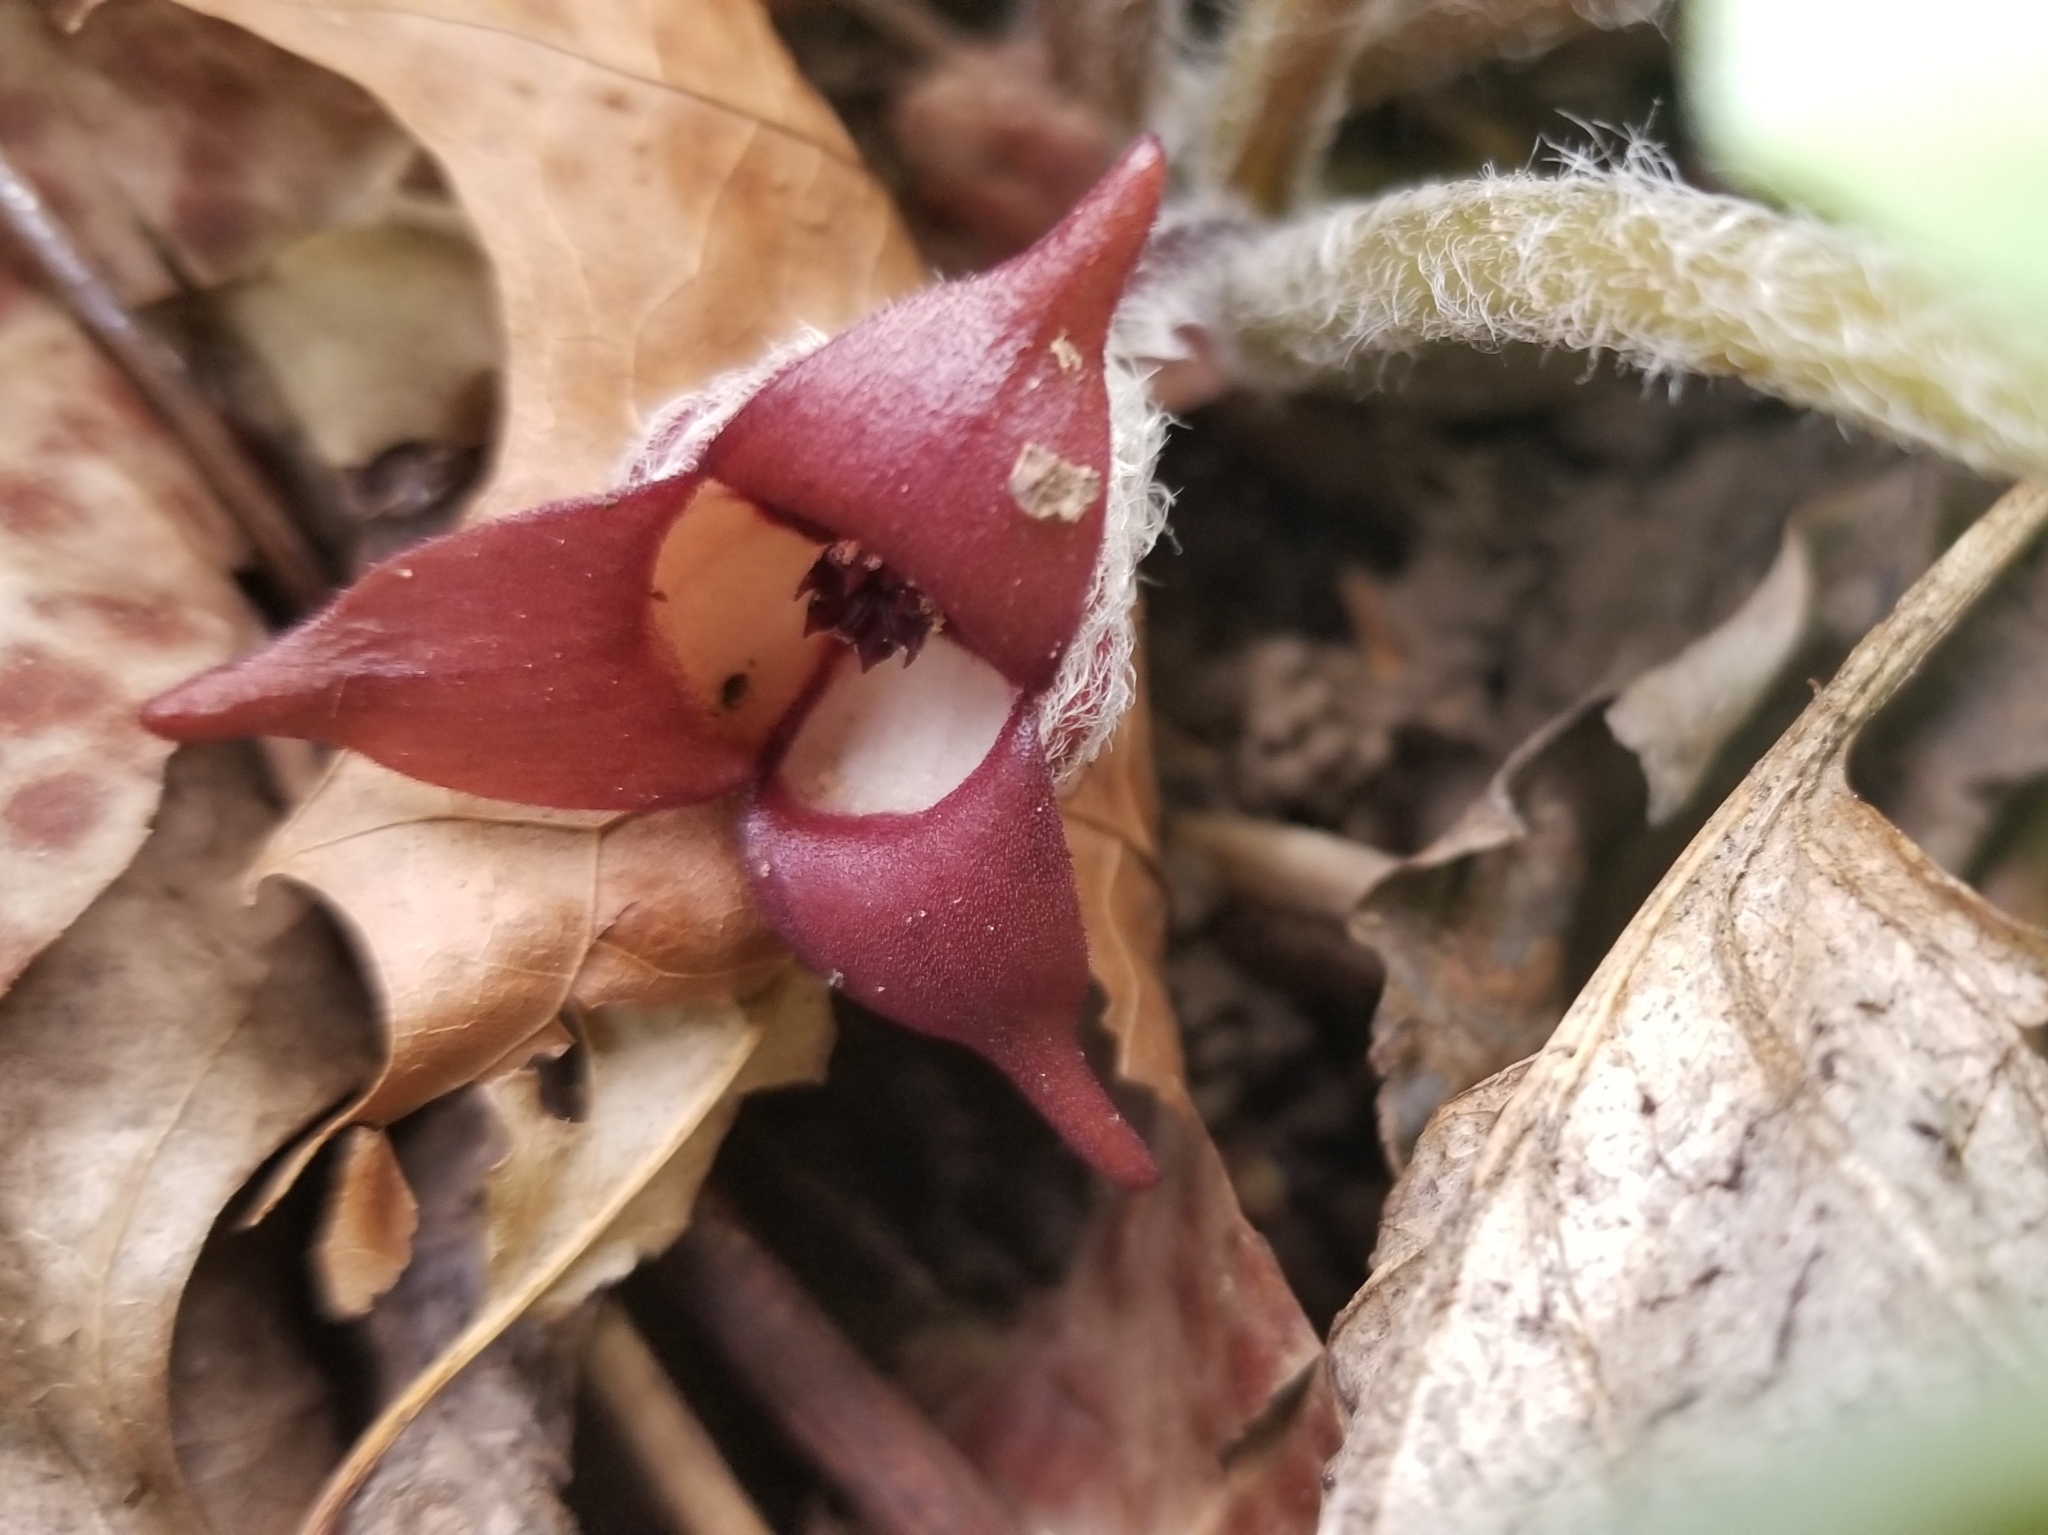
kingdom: Plantae
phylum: Tracheophyta
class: Magnoliopsida
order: Piperales
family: Aristolochiaceae
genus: Asarum
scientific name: Asarum canadense
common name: Wild ginger
